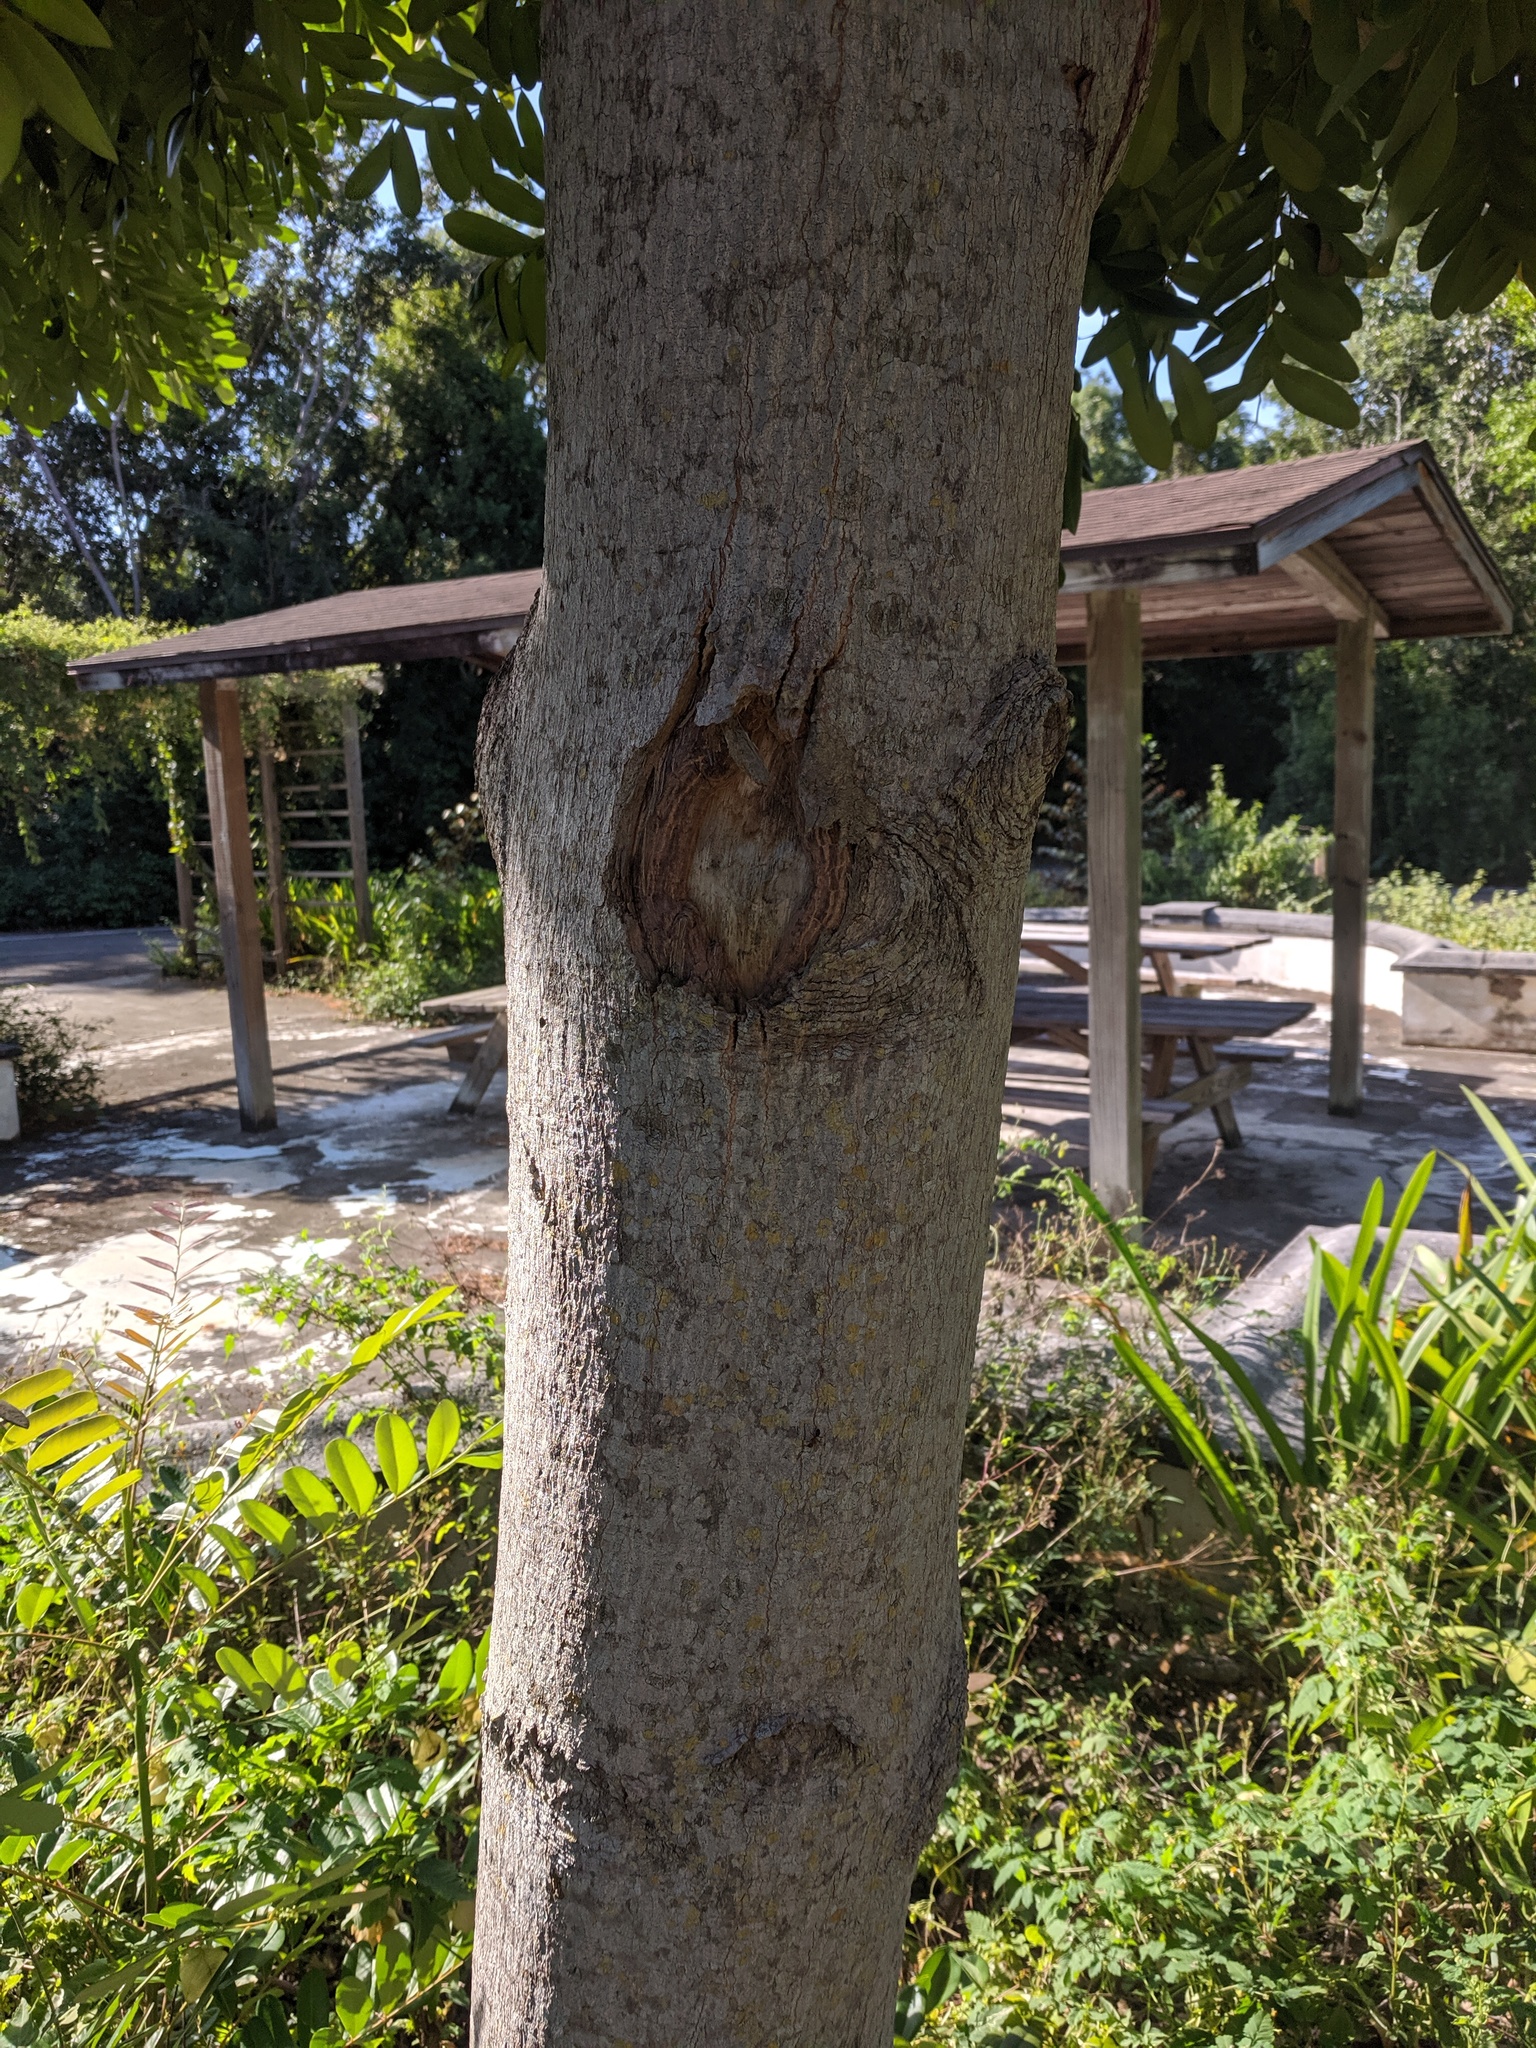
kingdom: Plantae
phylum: Tracheophyta
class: Magnoliopsida
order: Sapindales
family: Simaroubaceae
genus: Simarouba
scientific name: Simarouba glauca
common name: Dysentery-bark
